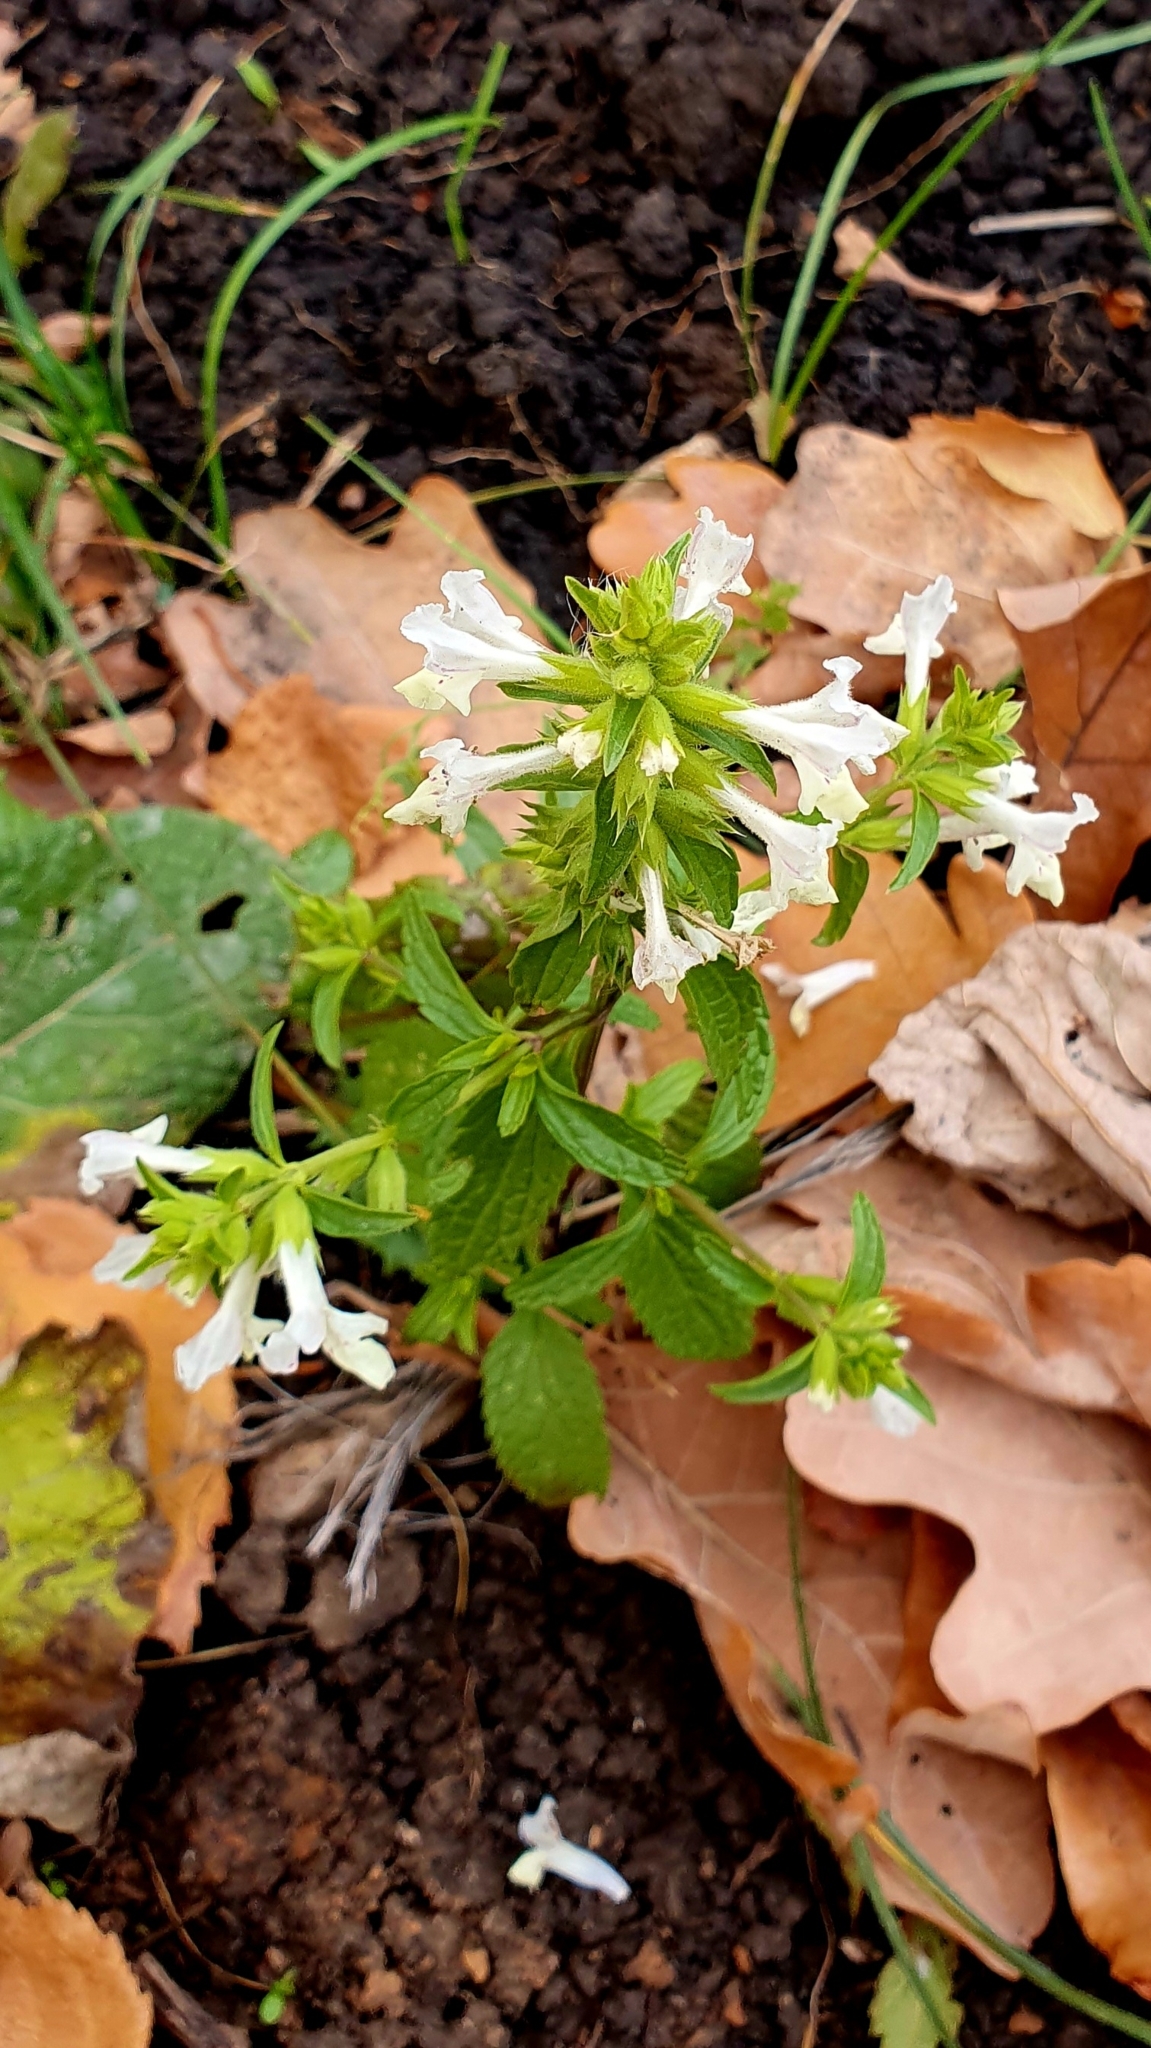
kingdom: Plantae
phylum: Tracheophyta
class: Magnoliopsida
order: Lamiales
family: Lamiaceae
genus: Stachys
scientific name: Stachys annua
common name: Annual yellow-woundwort
